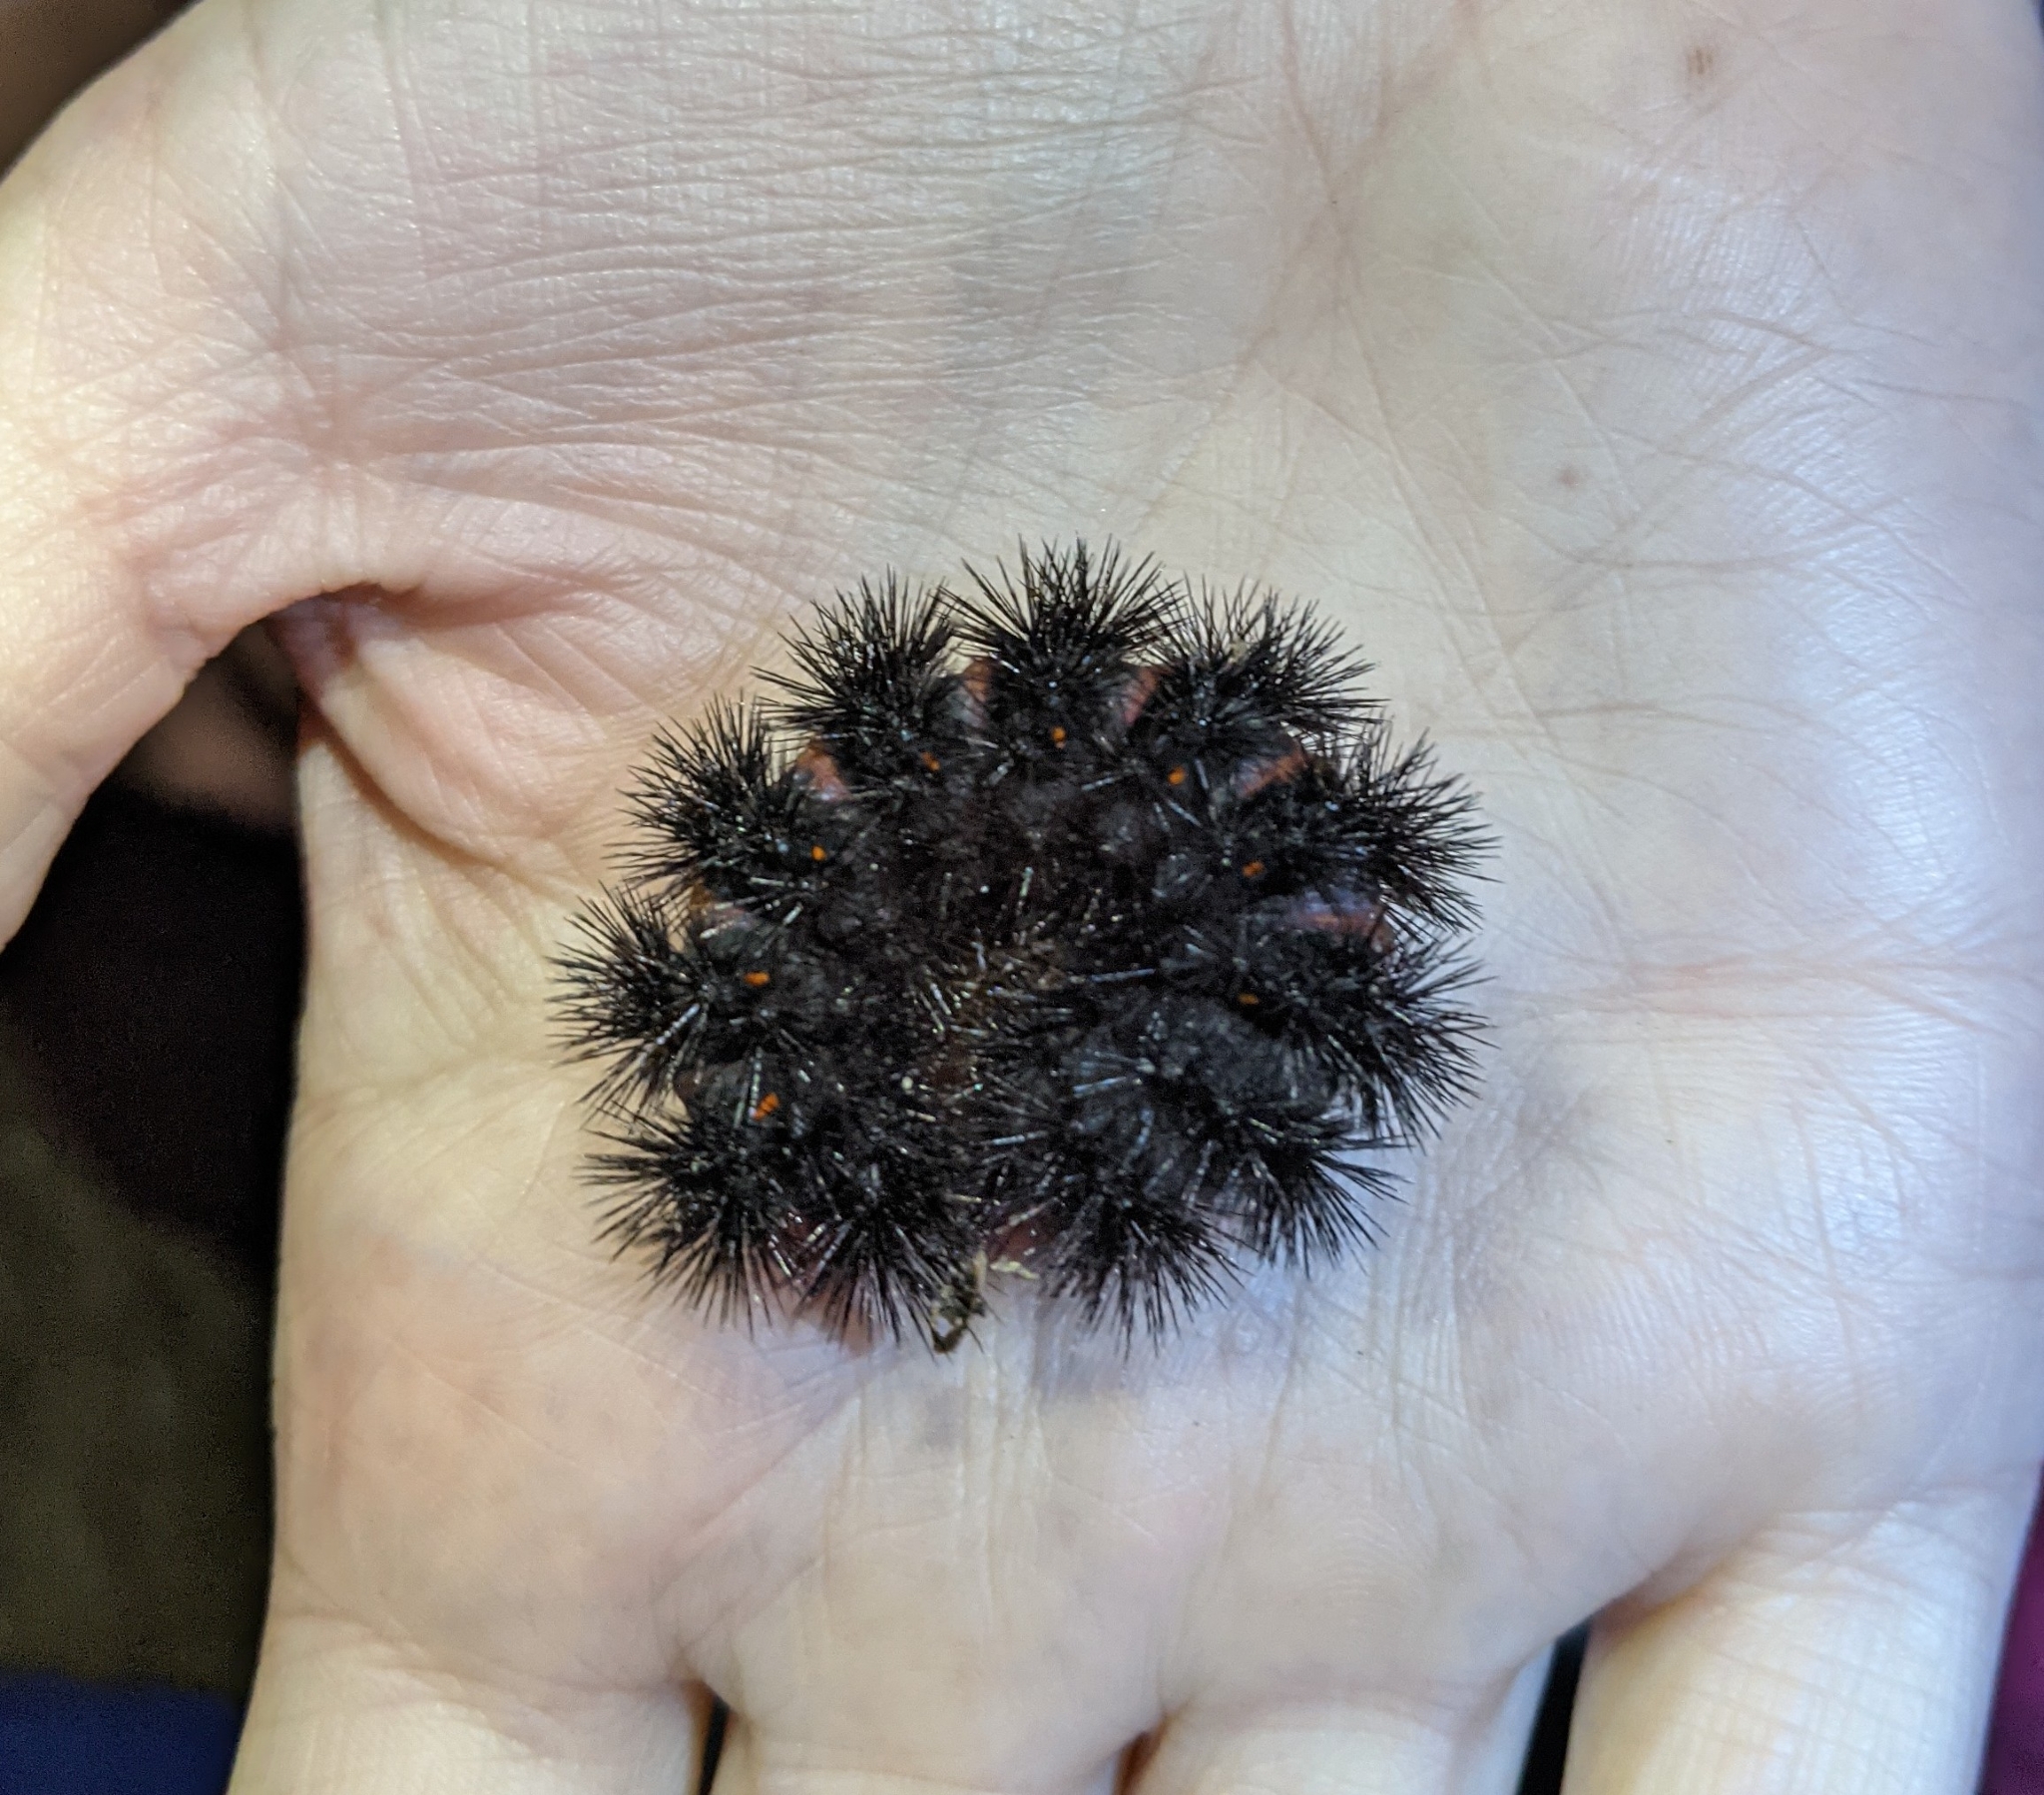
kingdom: Animalia
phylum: Arthropoda
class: Insecta
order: Lepidoptera
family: Erebidae
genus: Hypercompe
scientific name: Hypercompe scribonia
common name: Giant leopard moth
